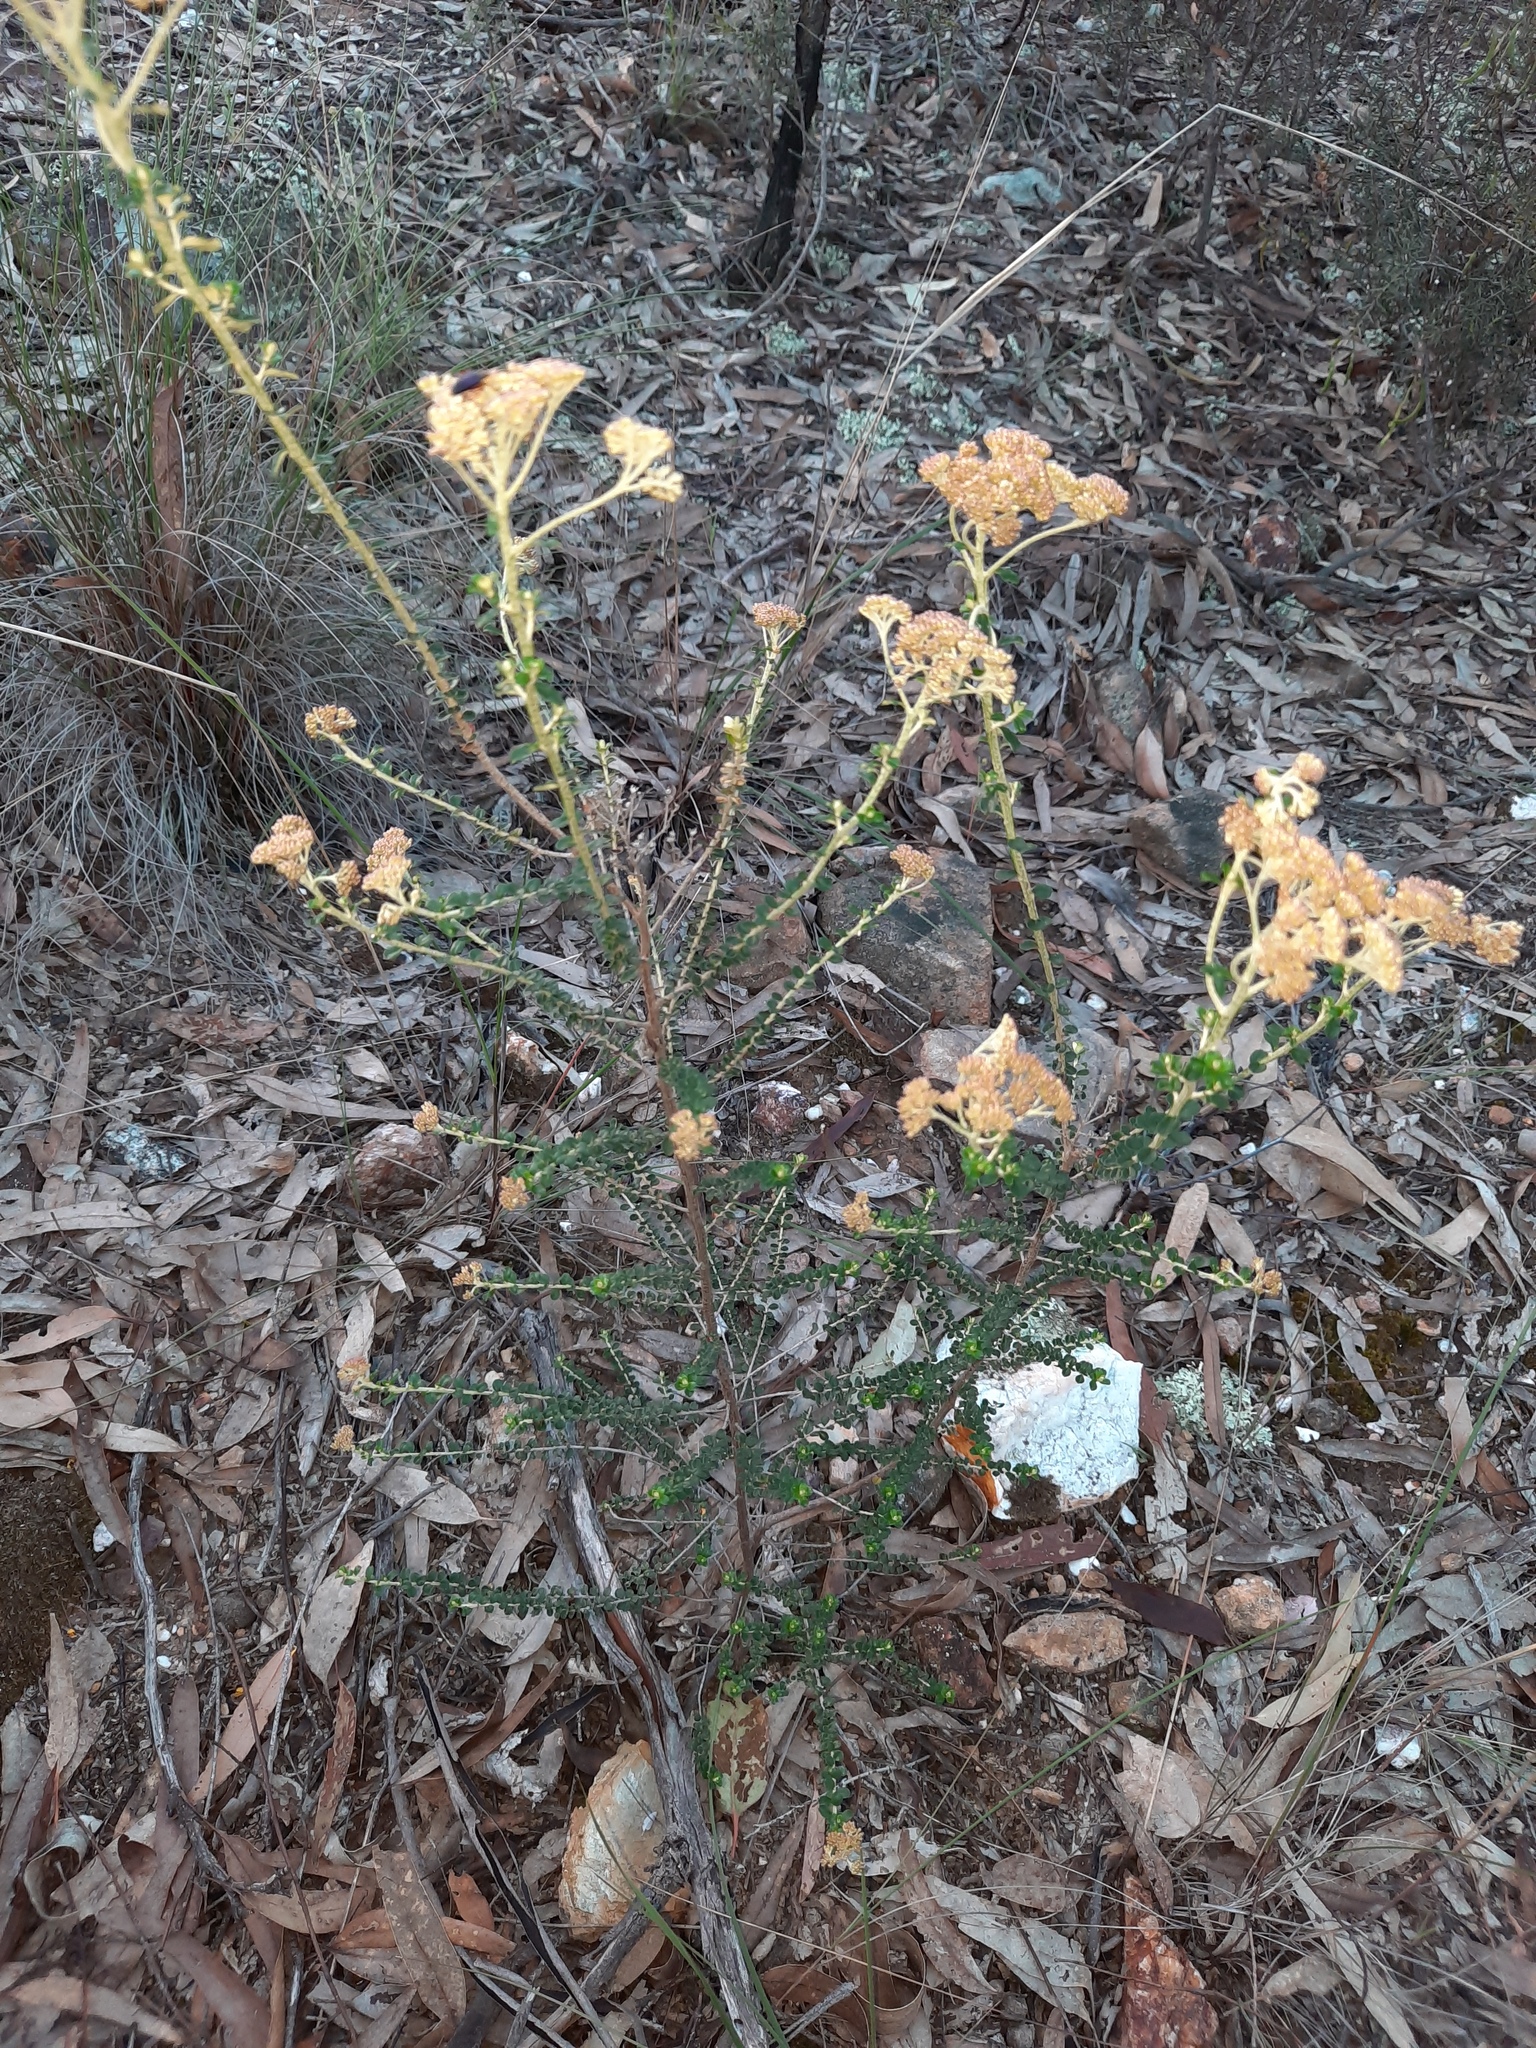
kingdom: Plantae
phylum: Tracheophyta
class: Magnoliopsida
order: Asterales
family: Asteraceae
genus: Ozothamnus
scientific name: Ozothamnus obcordatus
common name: Grey everlasting
